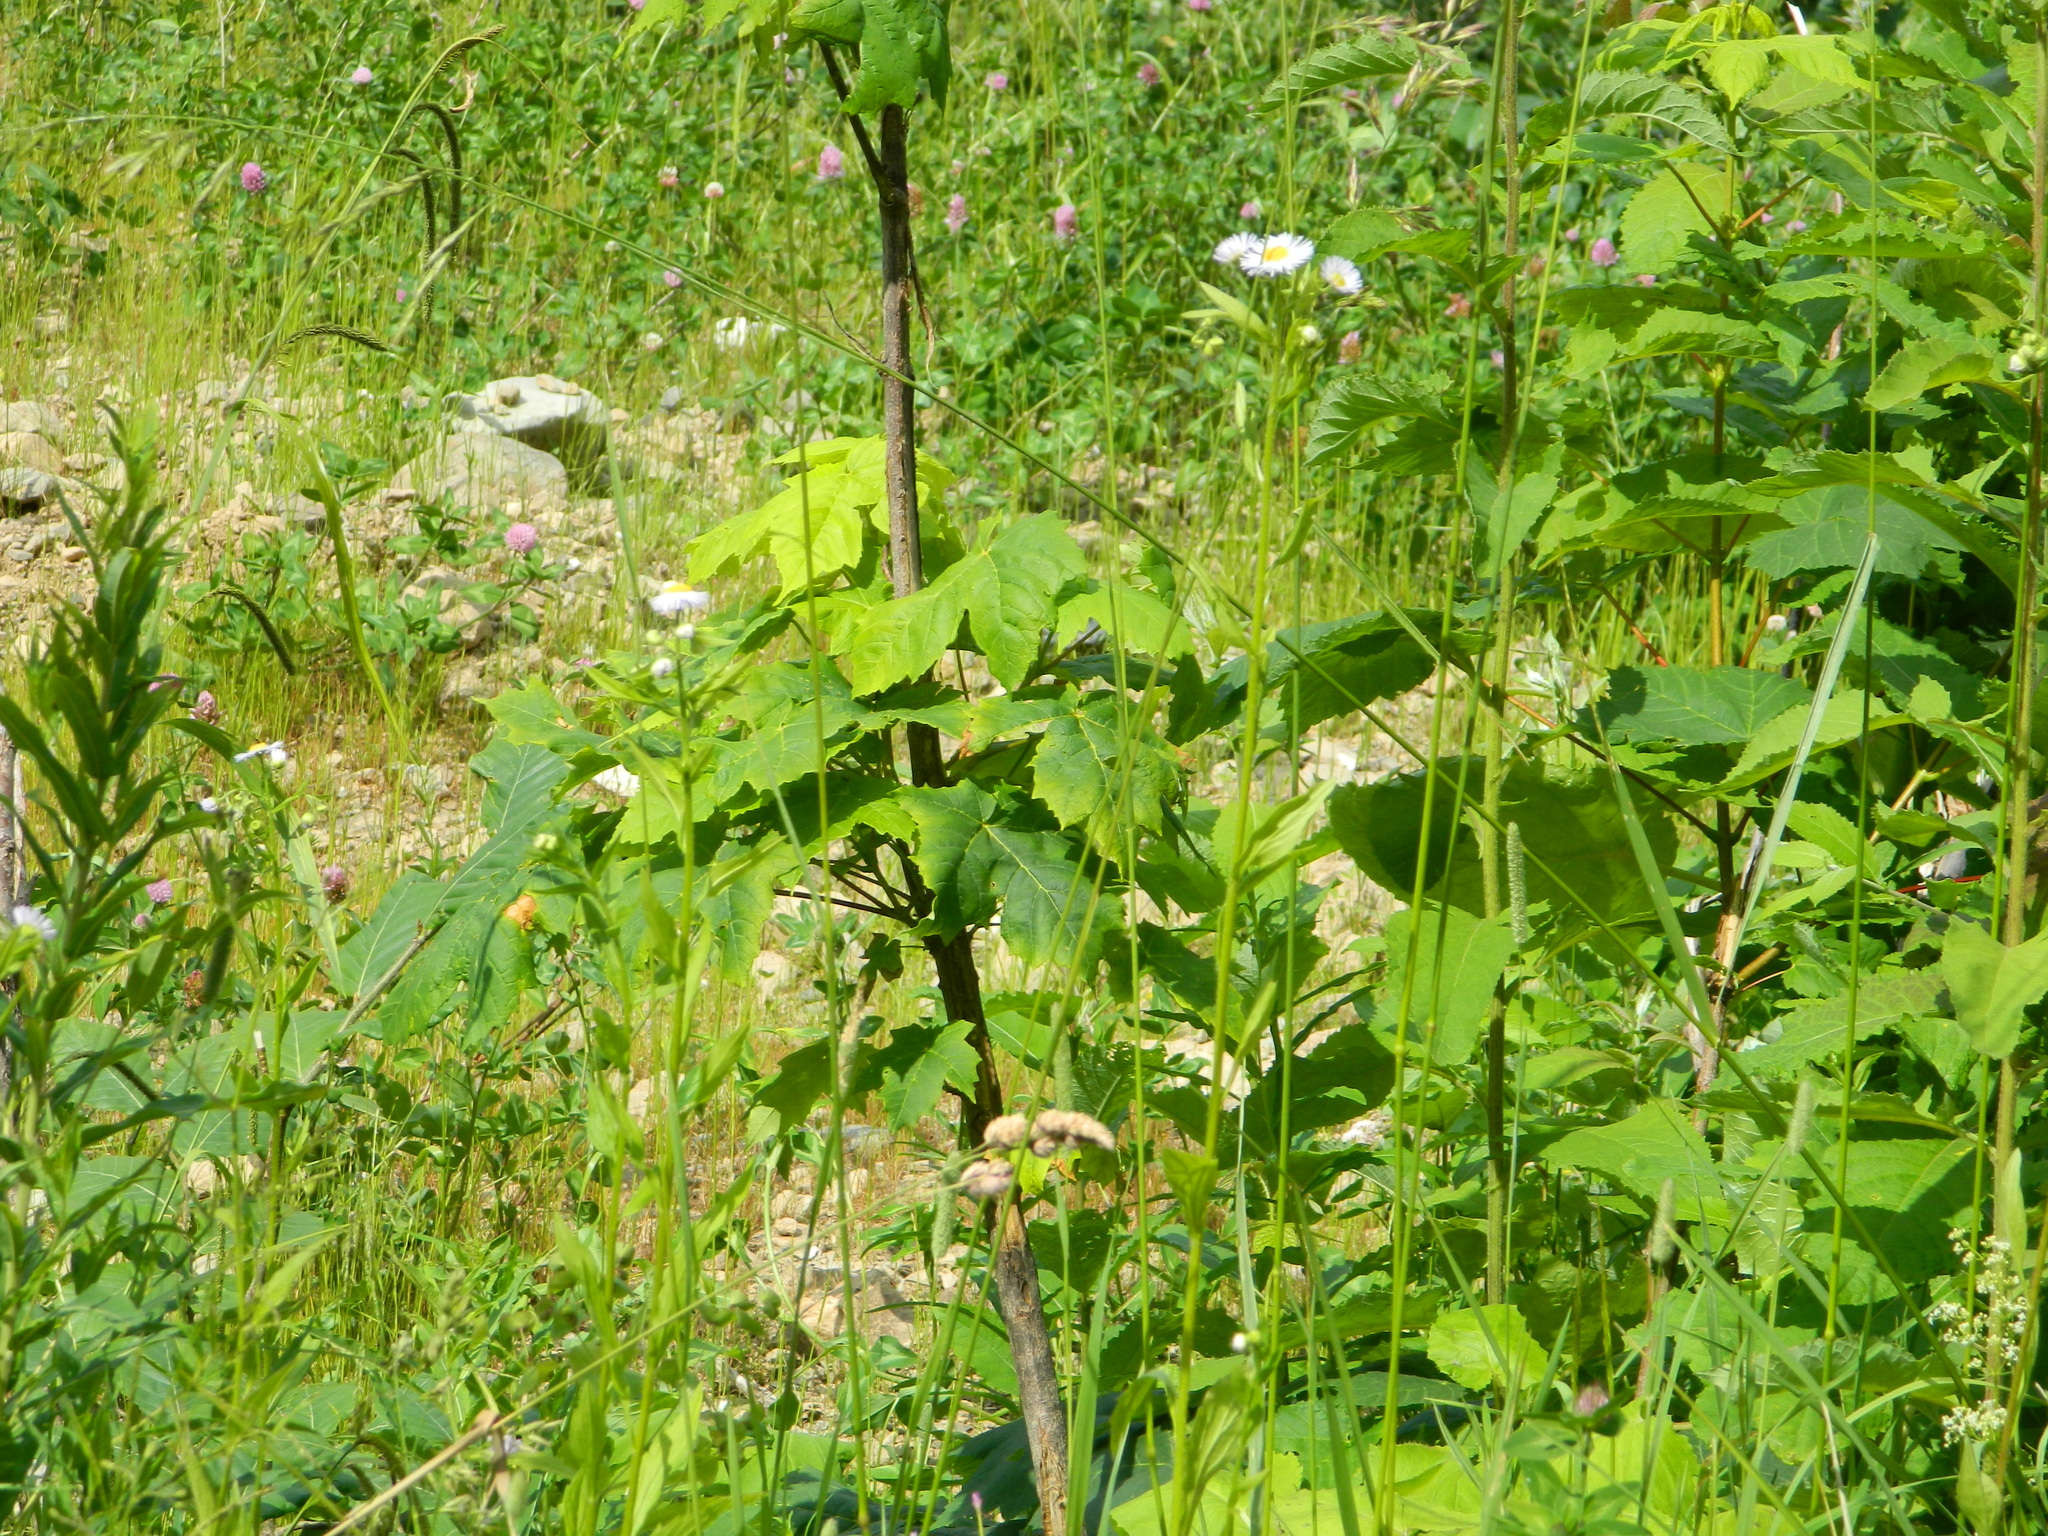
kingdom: Plantae
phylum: Tracheophyta
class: Magnoliopsida
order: Sapindales
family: Sapindaceae
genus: Acer
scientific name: Acer pseudoplatanus
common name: Sycamore
